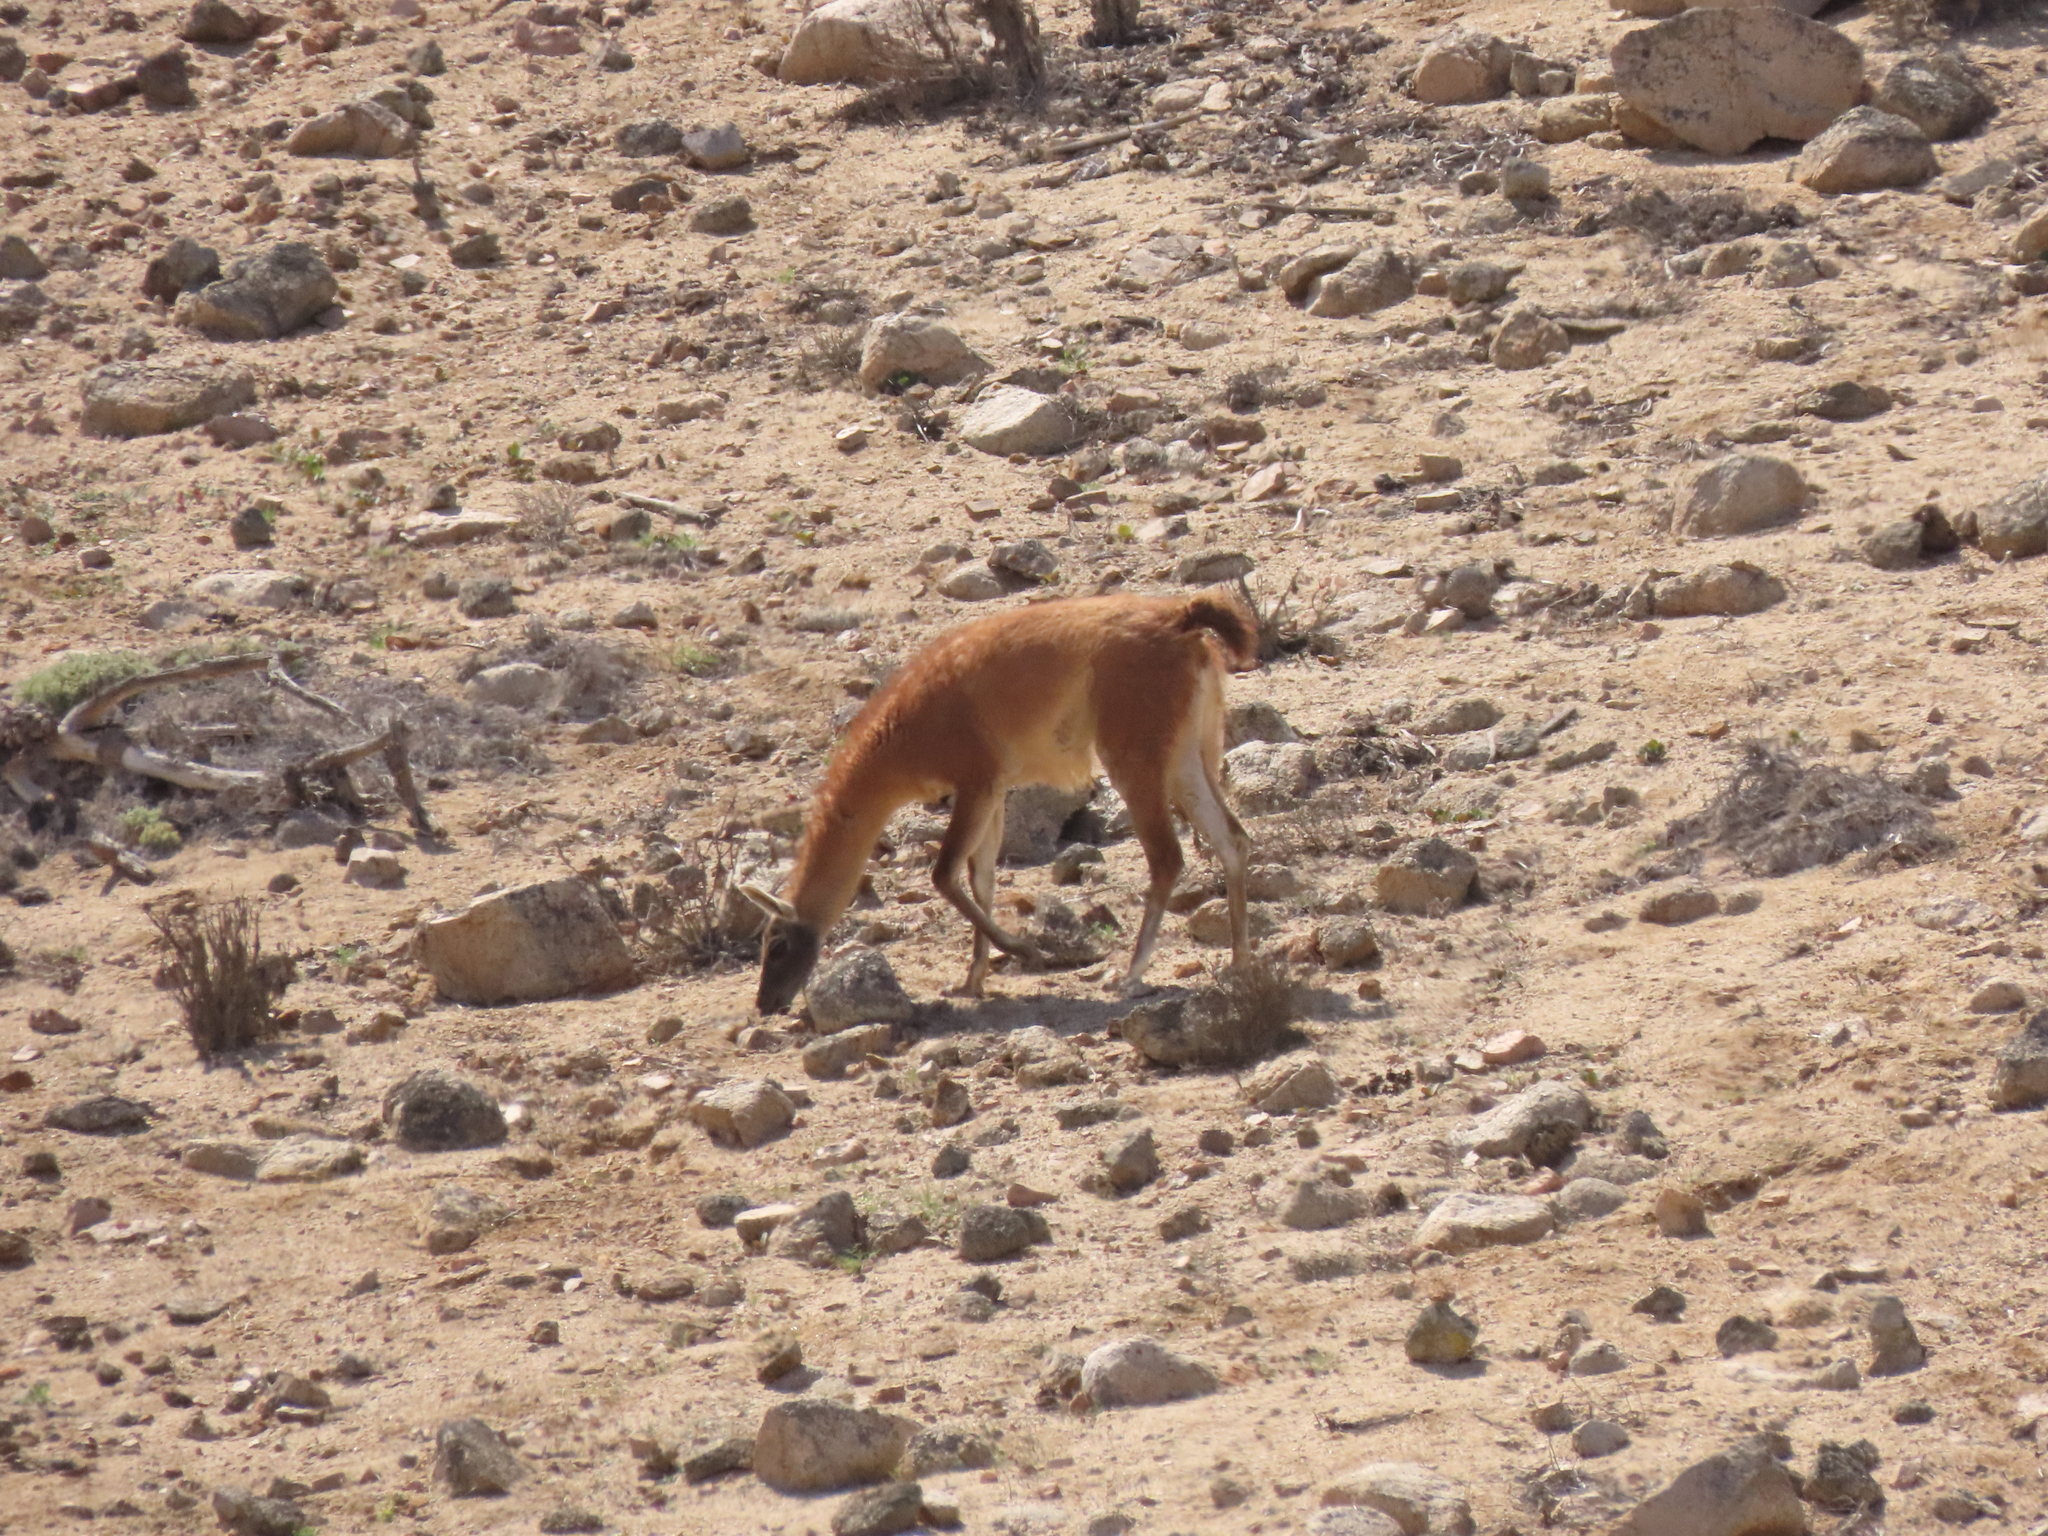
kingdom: Animalia
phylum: Chordata
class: Mammalia
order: Artiodactyla
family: Camelidae
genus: Lama
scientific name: Lama glama
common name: Llama
